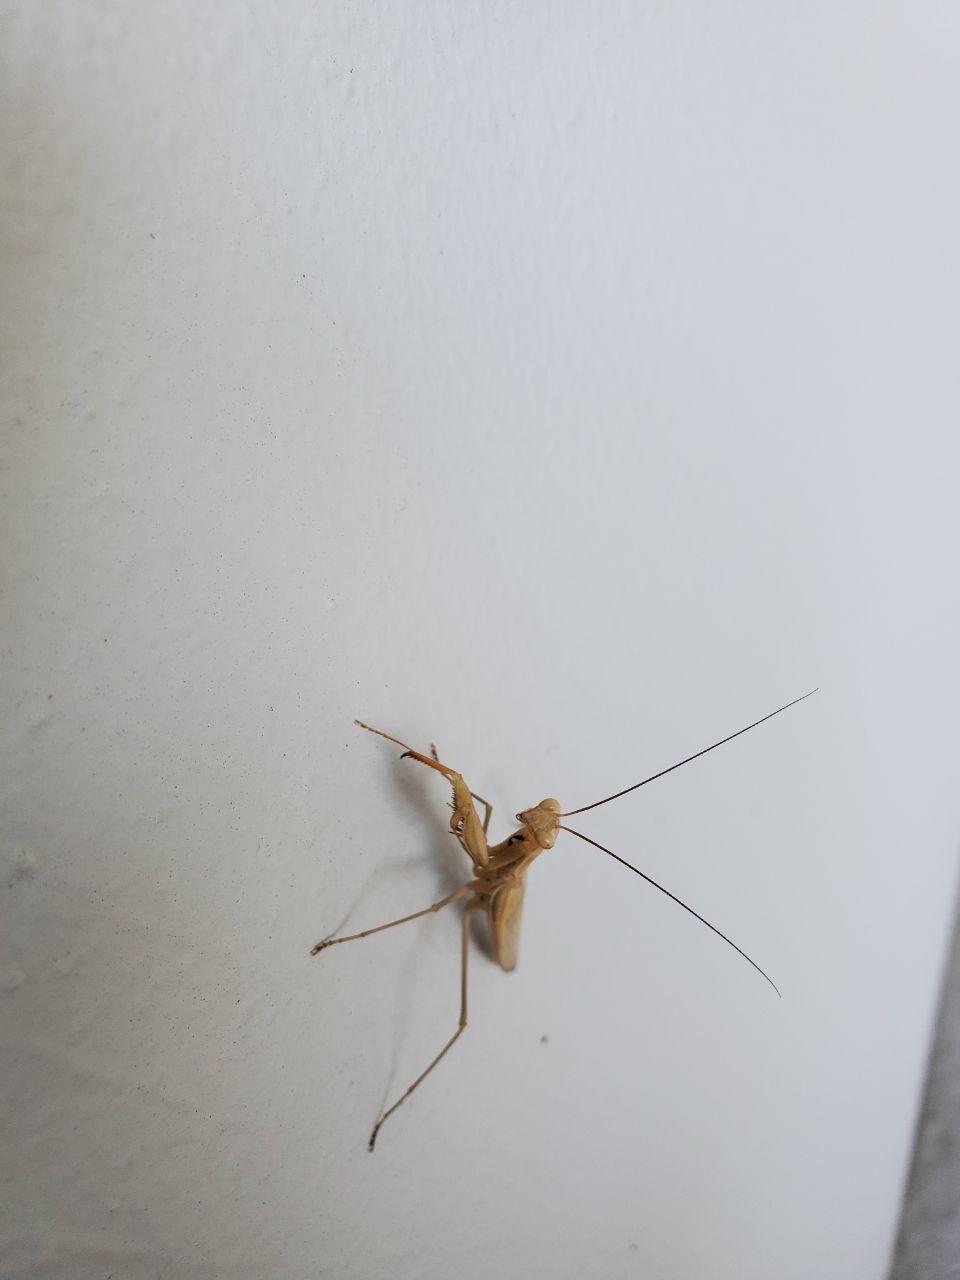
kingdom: Animalia
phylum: Arthropoda
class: Insecta
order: Mantodea
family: Mantidae
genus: Mantis
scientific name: Mantis religiosa
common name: Praying mantis
